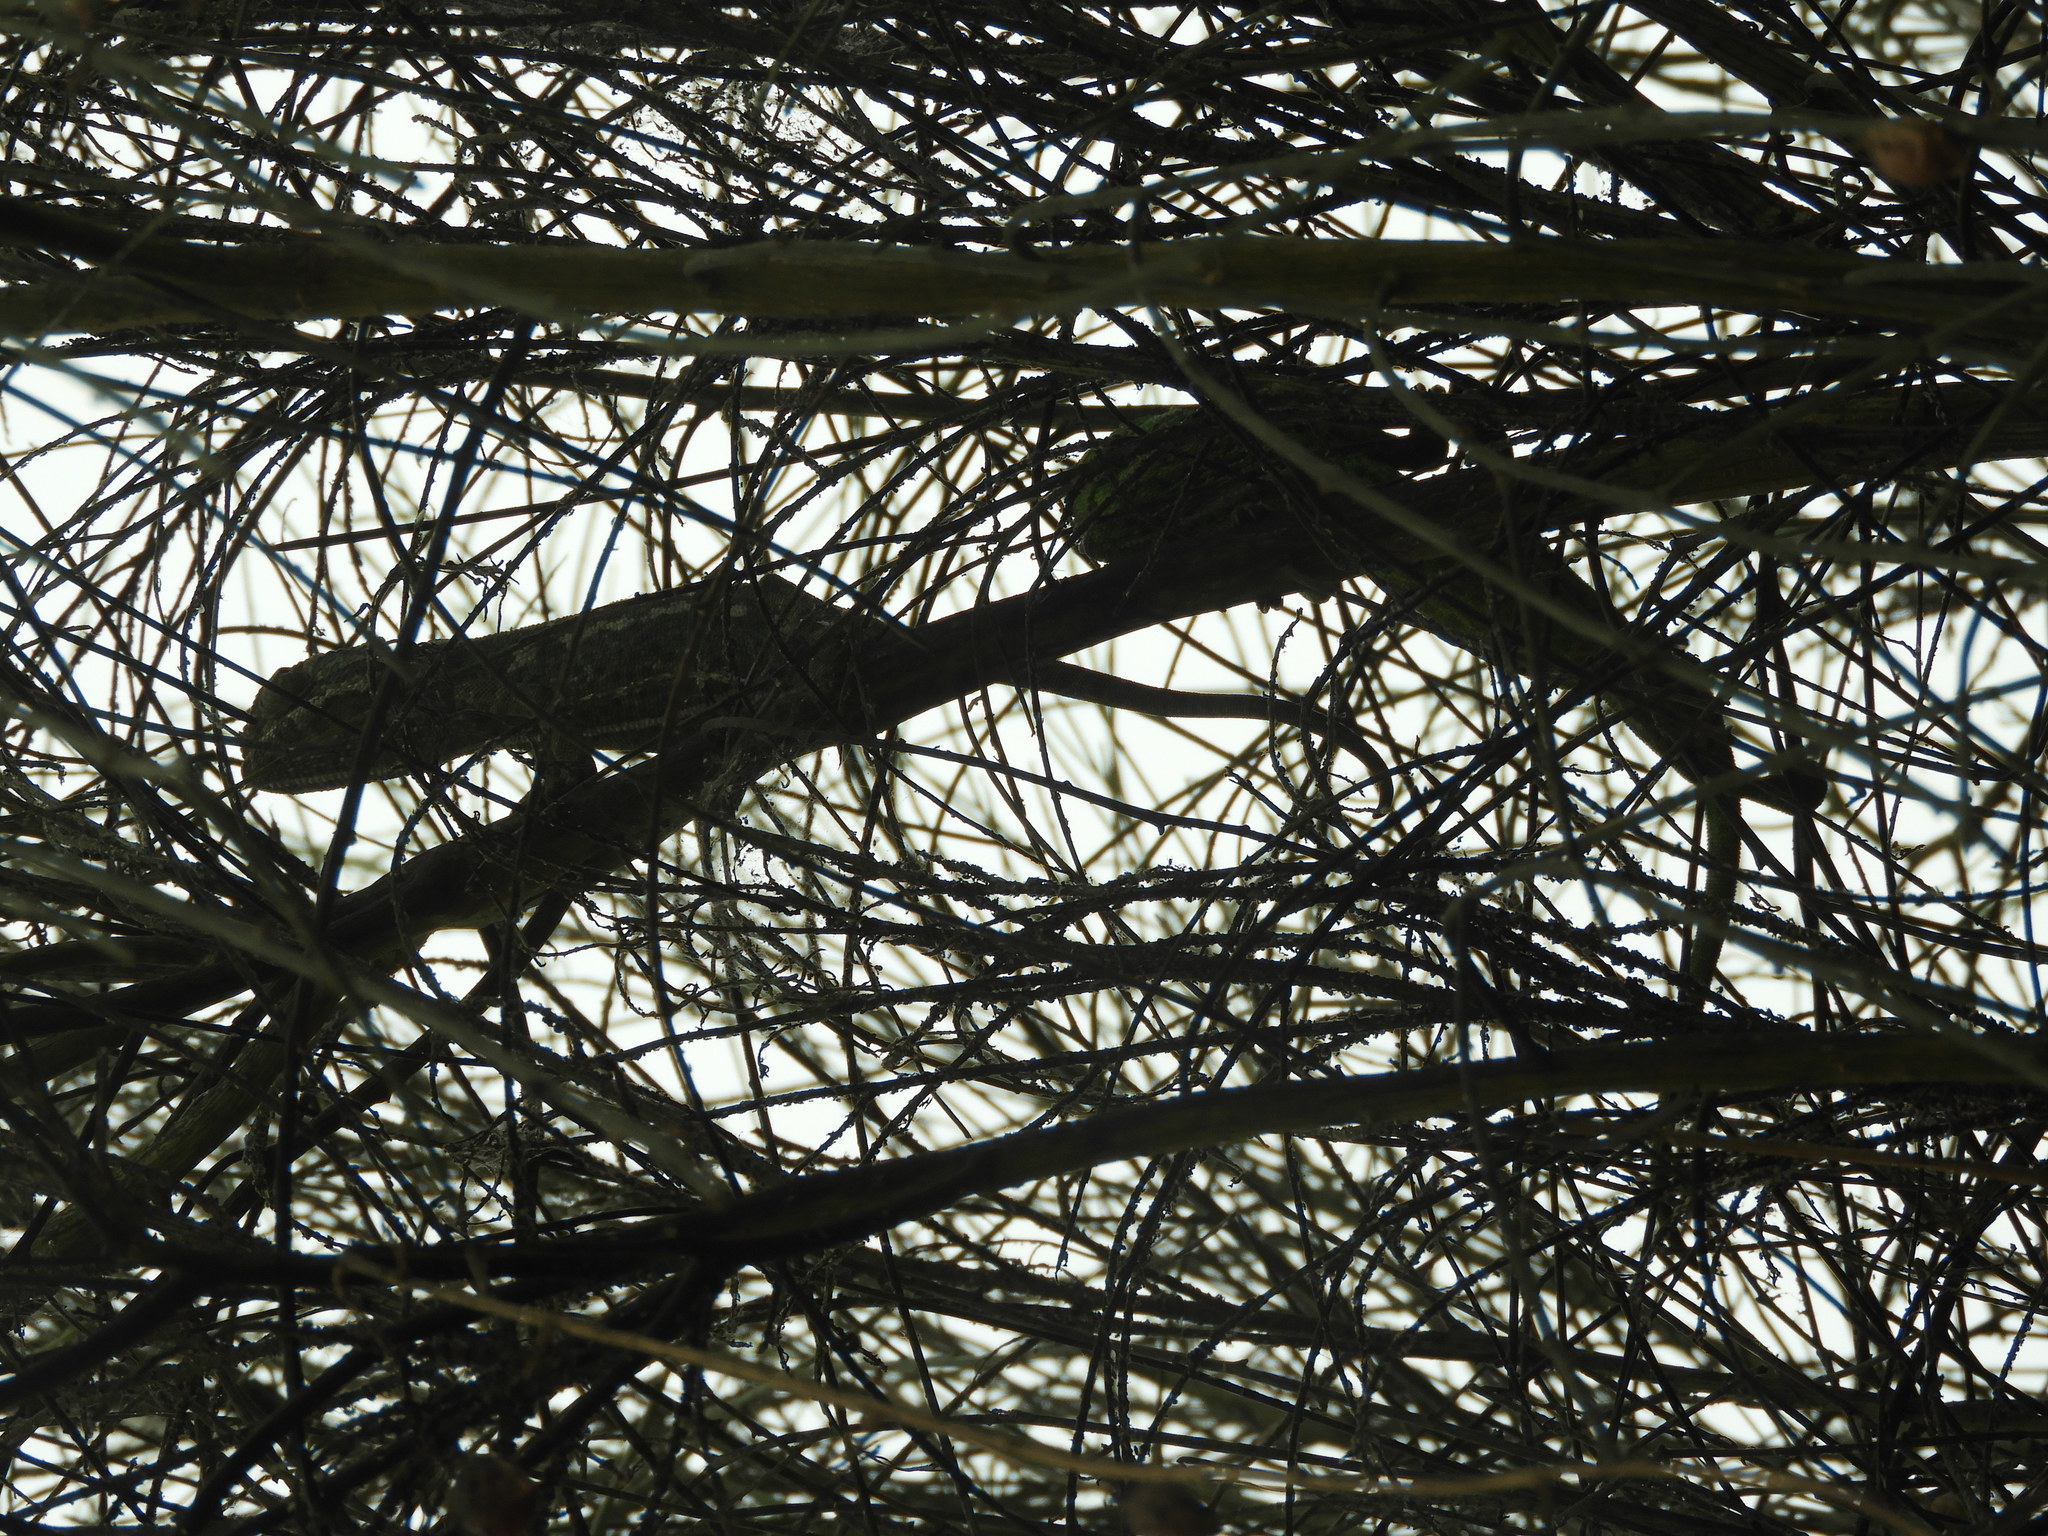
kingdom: Animalia
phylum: Chordata
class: Squamata
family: Chamaeleonidae
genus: Chamaeleo
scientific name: Chamaeleo chamaeleon
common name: Mediterranean chameleon
